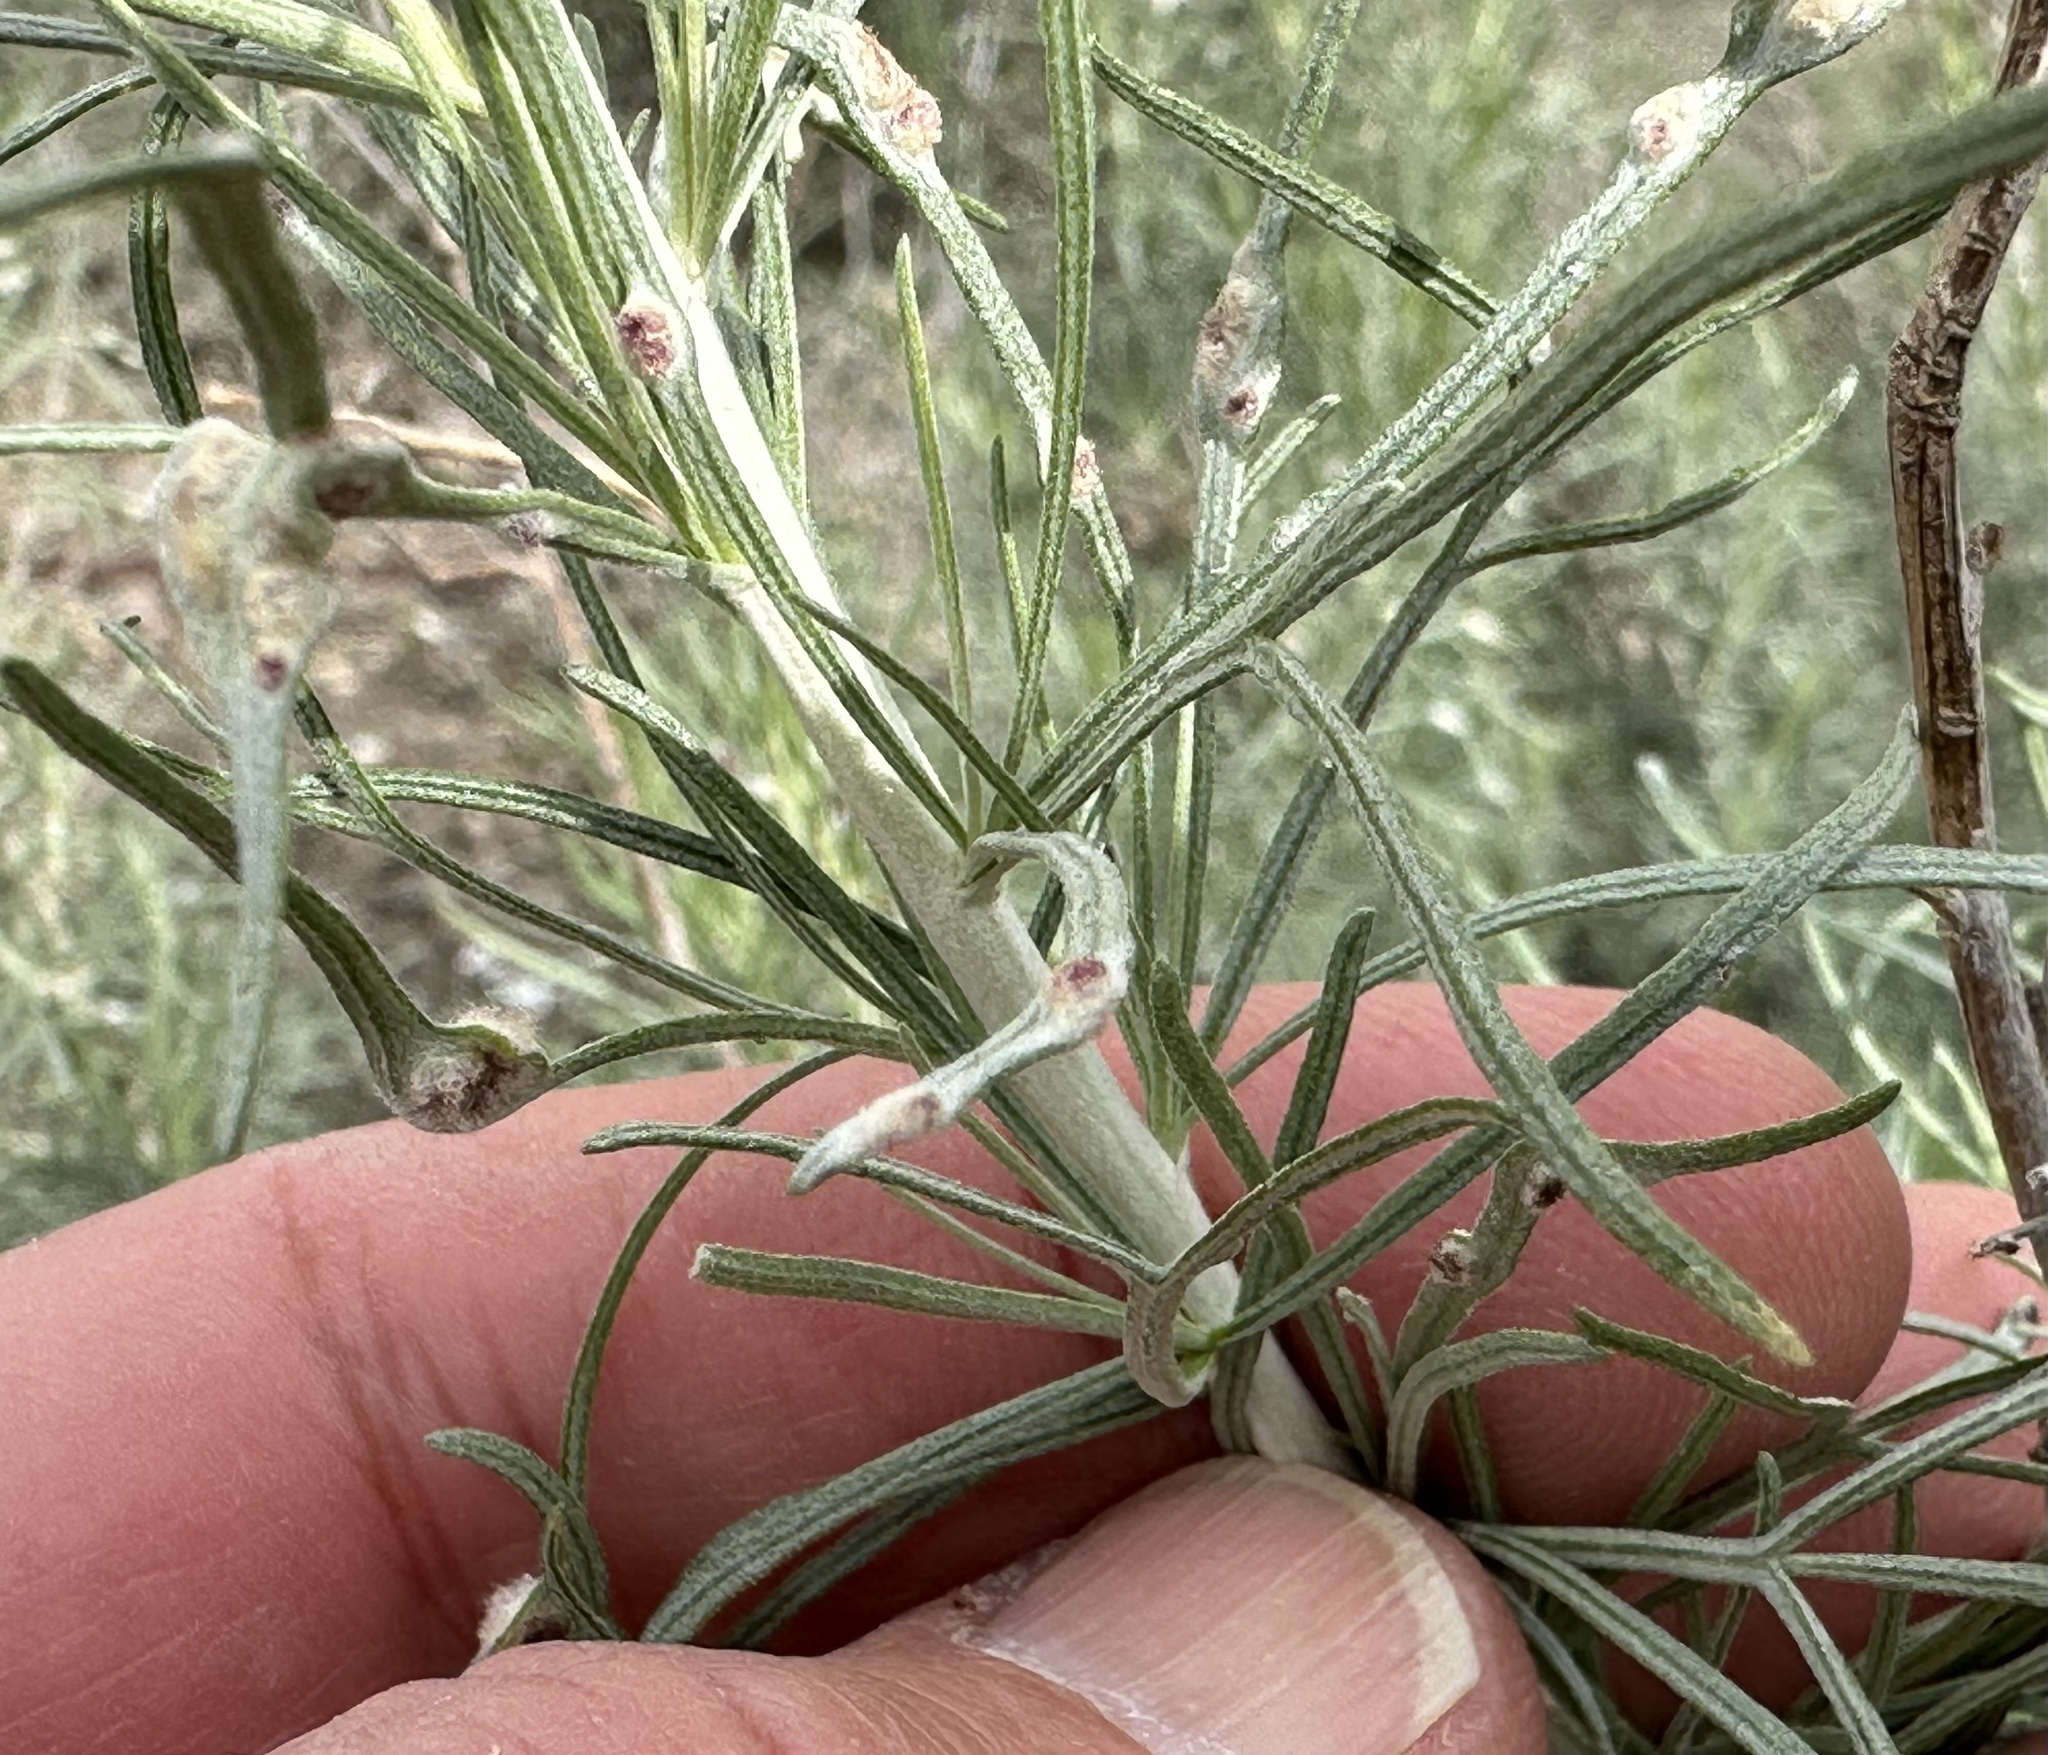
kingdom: Plantae
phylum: Tracheophyta
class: Magnoliopsida
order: Asterales
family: Asteraceae
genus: Artemisia
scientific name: Artemisia californica
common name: California sagebrush
